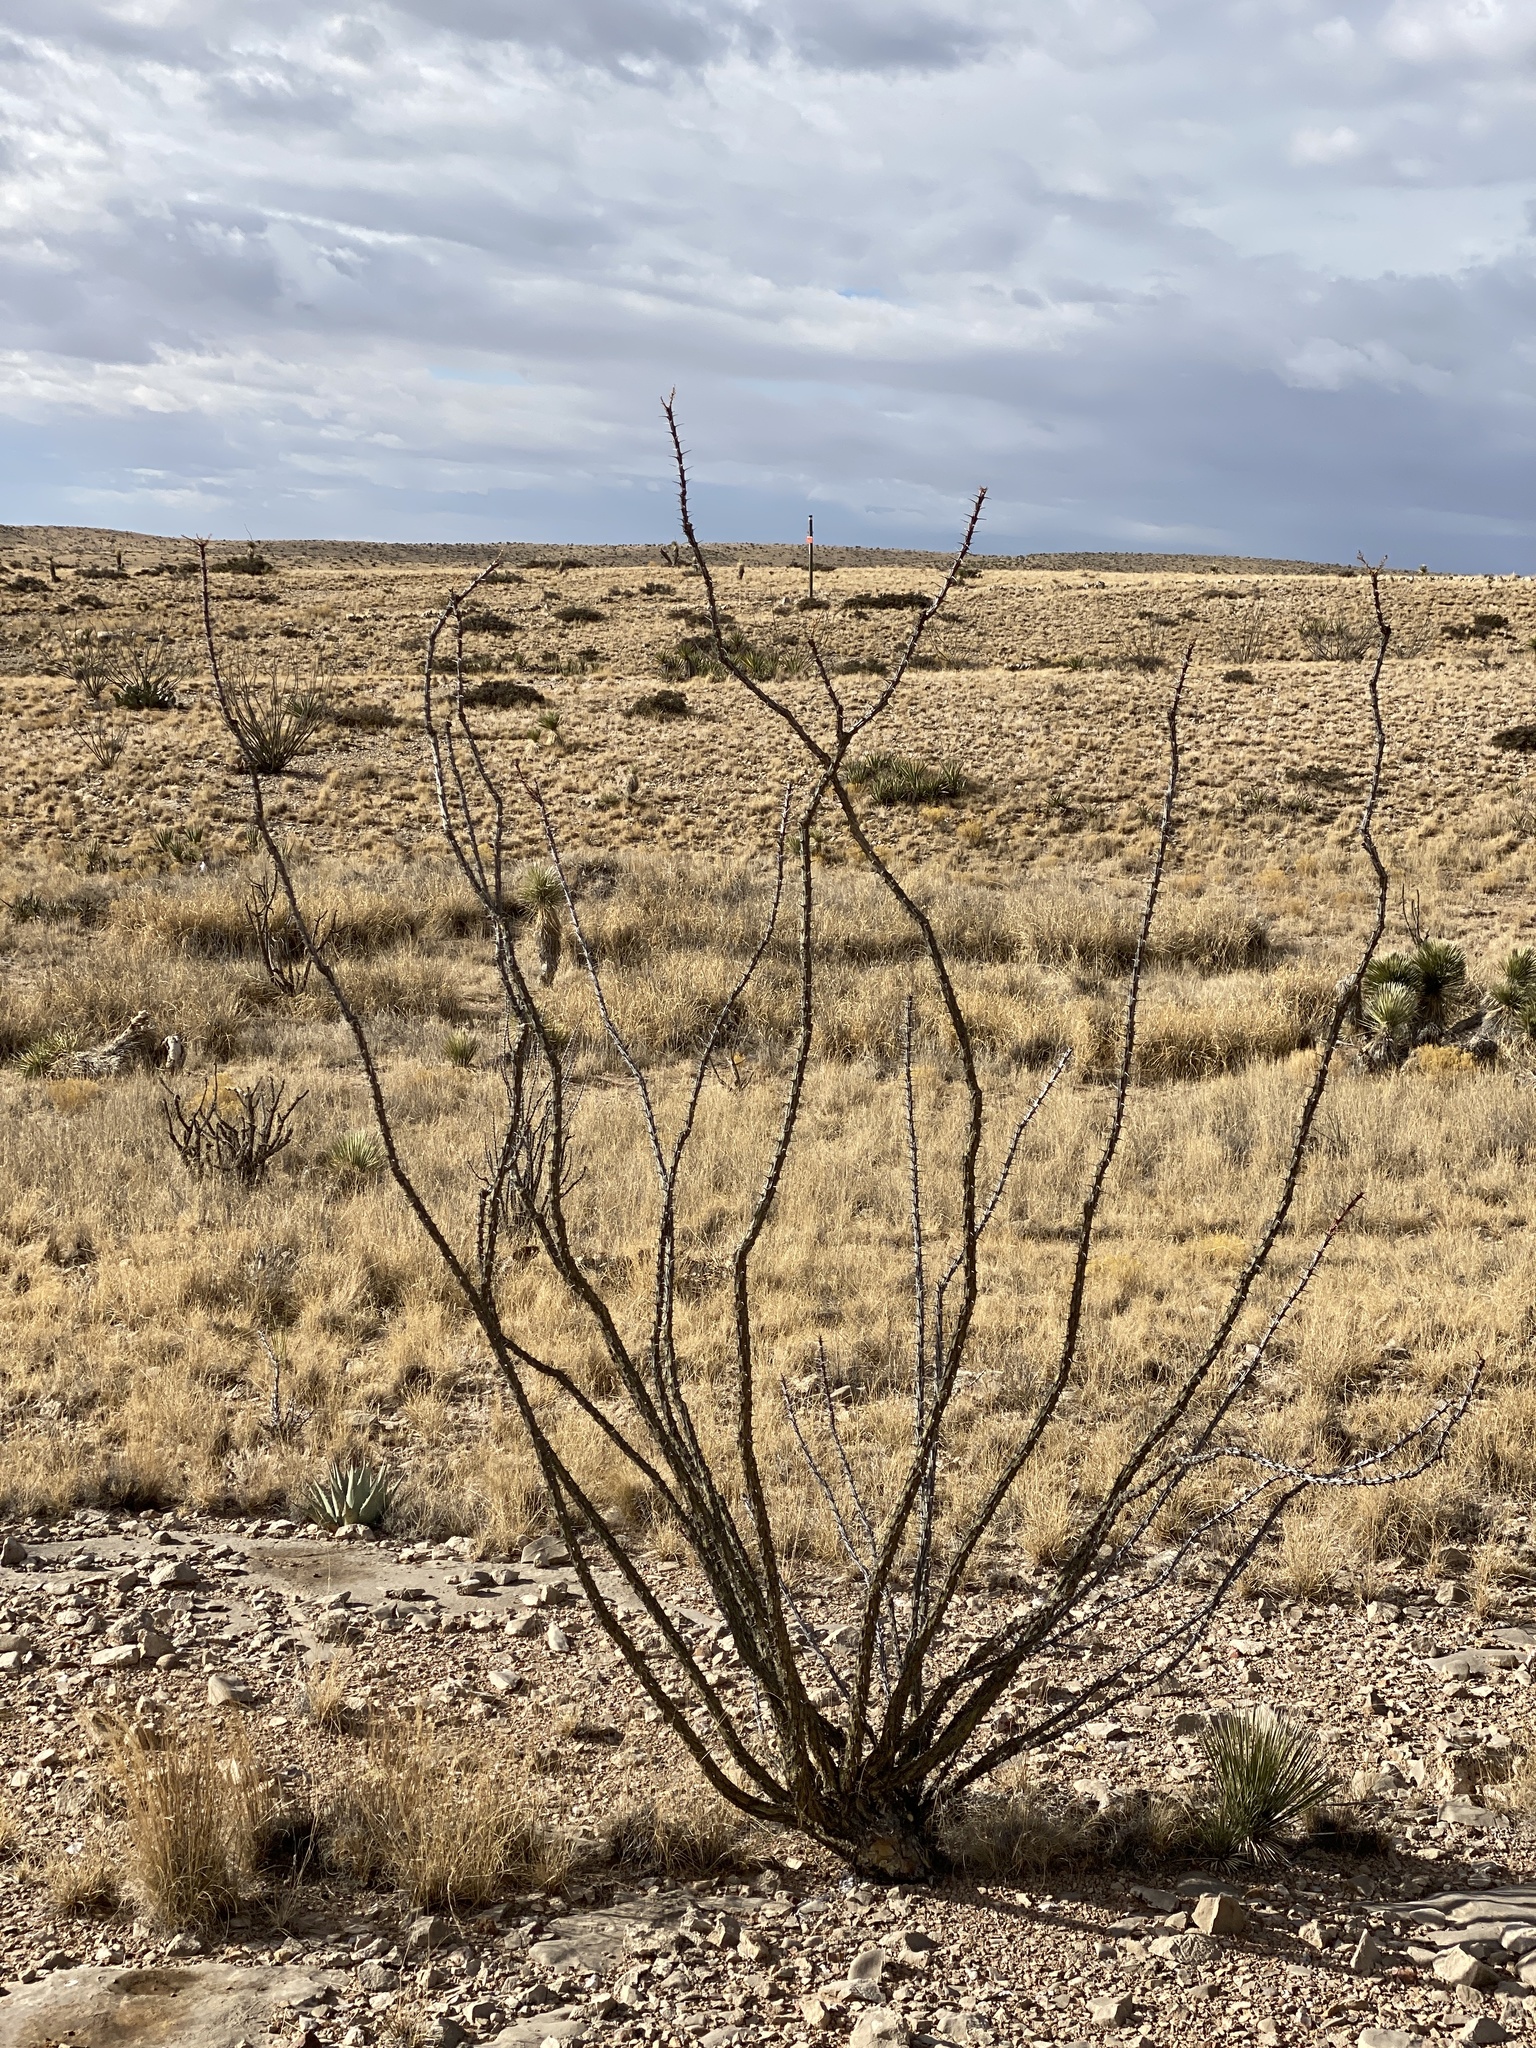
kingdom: Plantae
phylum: Tracheophyta
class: Magnoliopsida
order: Ericales
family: Fouquieriaceae
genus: Fouquieria
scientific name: Fouquieria splendens
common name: Vine-cactus
